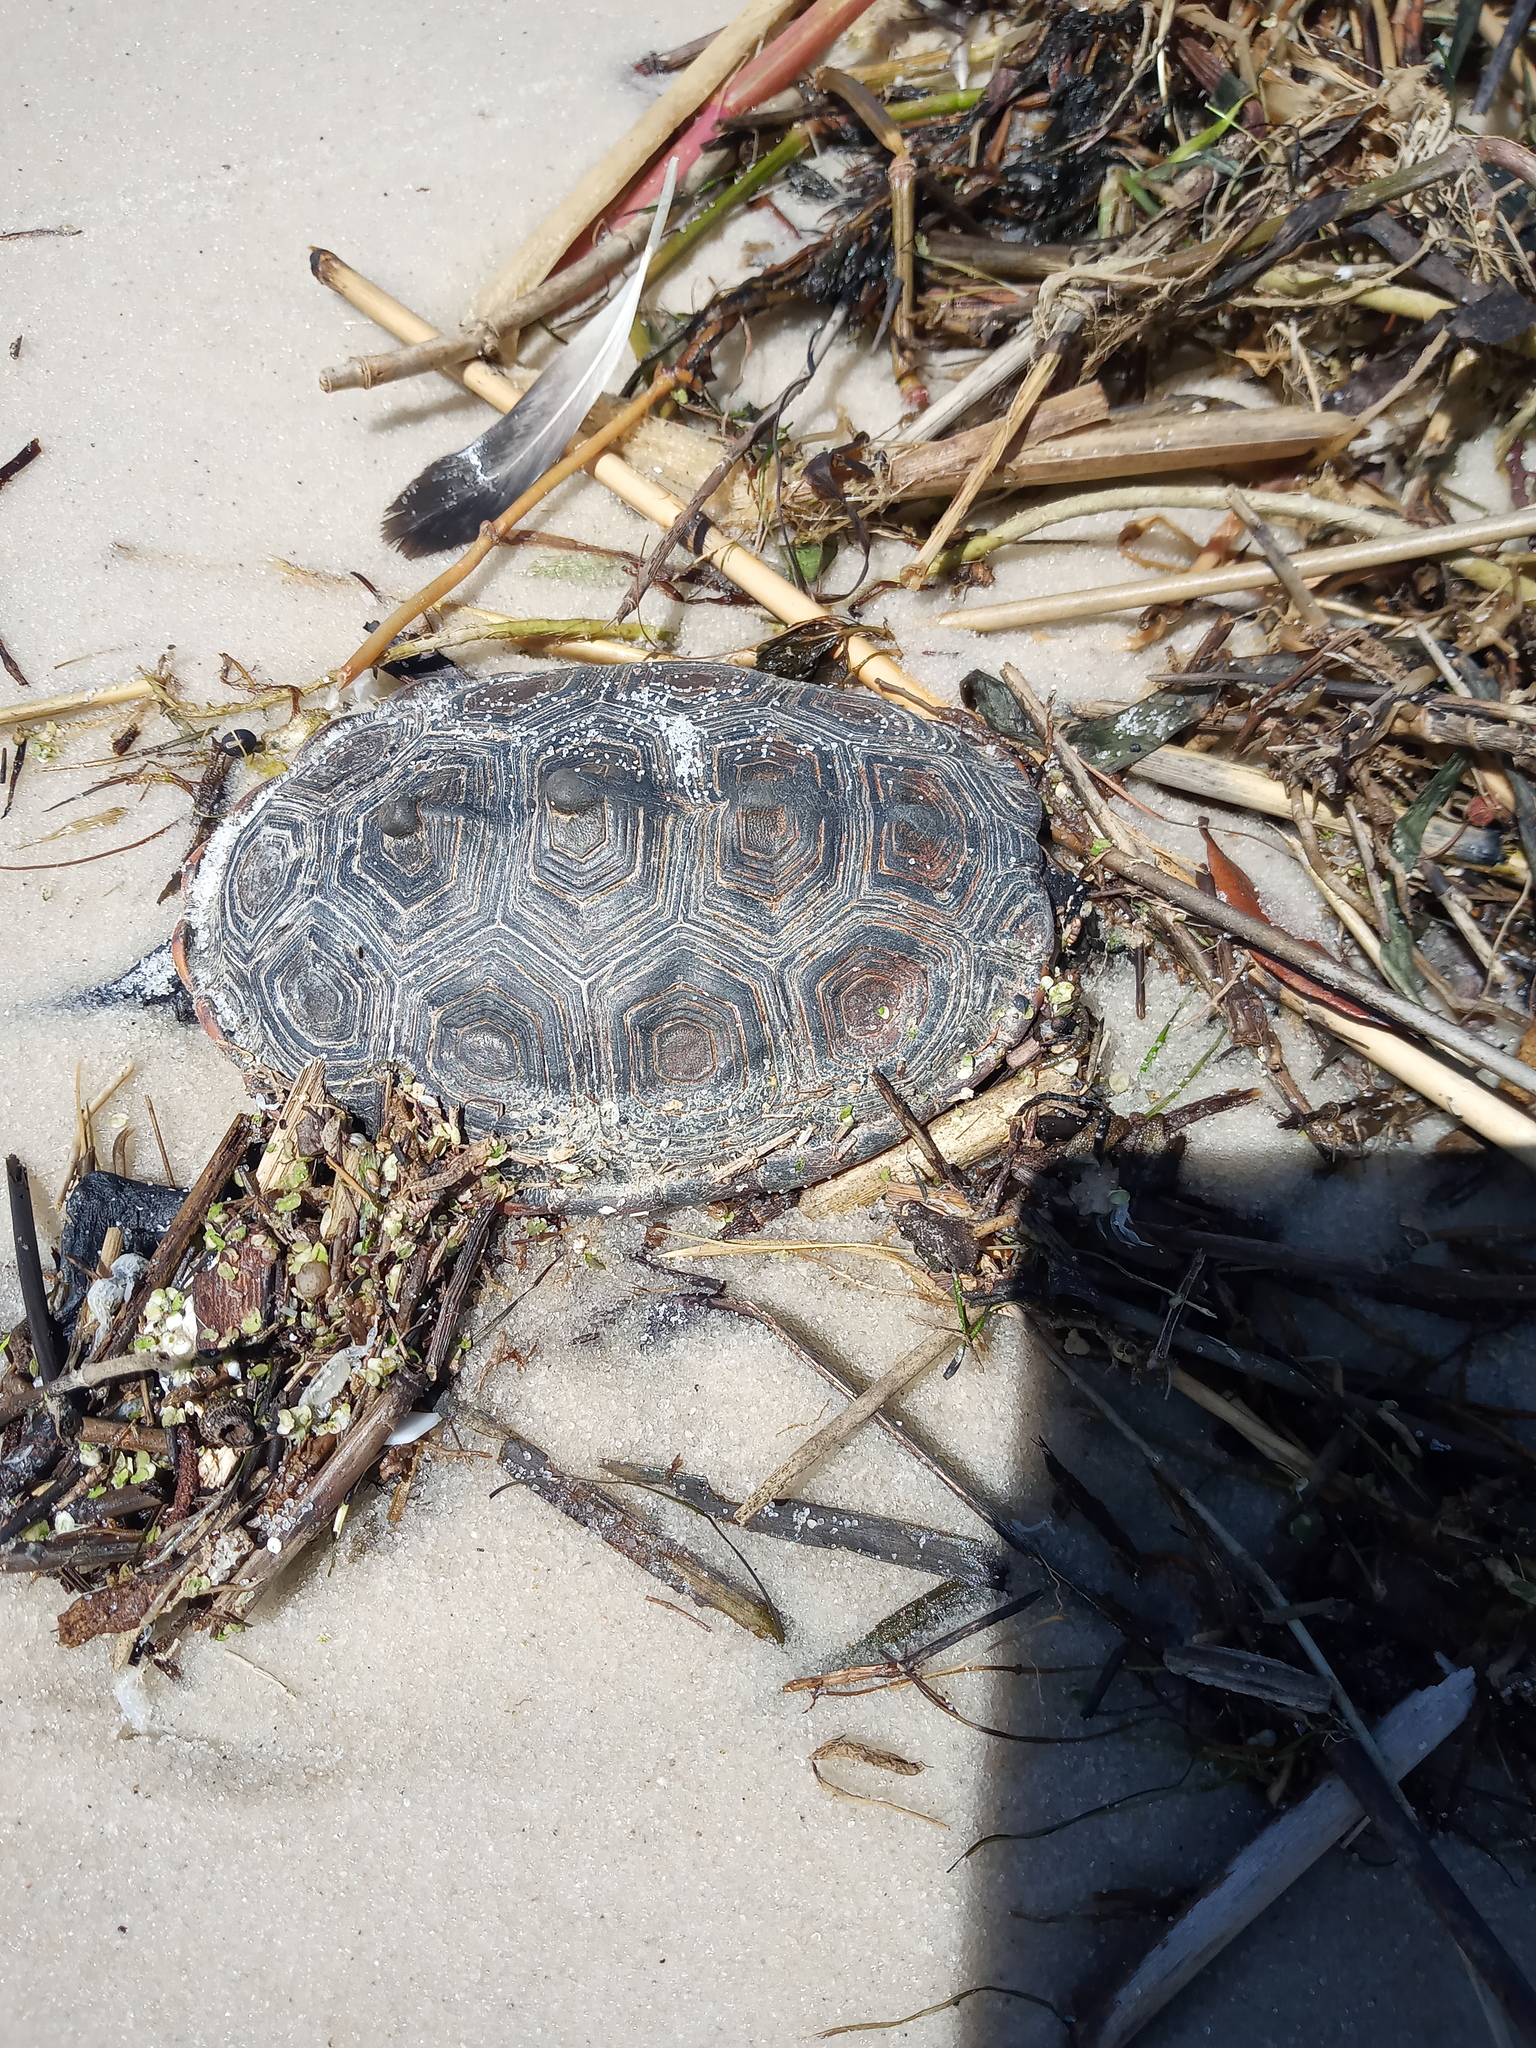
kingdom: Animalia
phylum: Chordata
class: Testudines
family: Emydidae
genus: Malaclemys
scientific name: Malaclemys terrapin
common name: Diamondback terrapin
